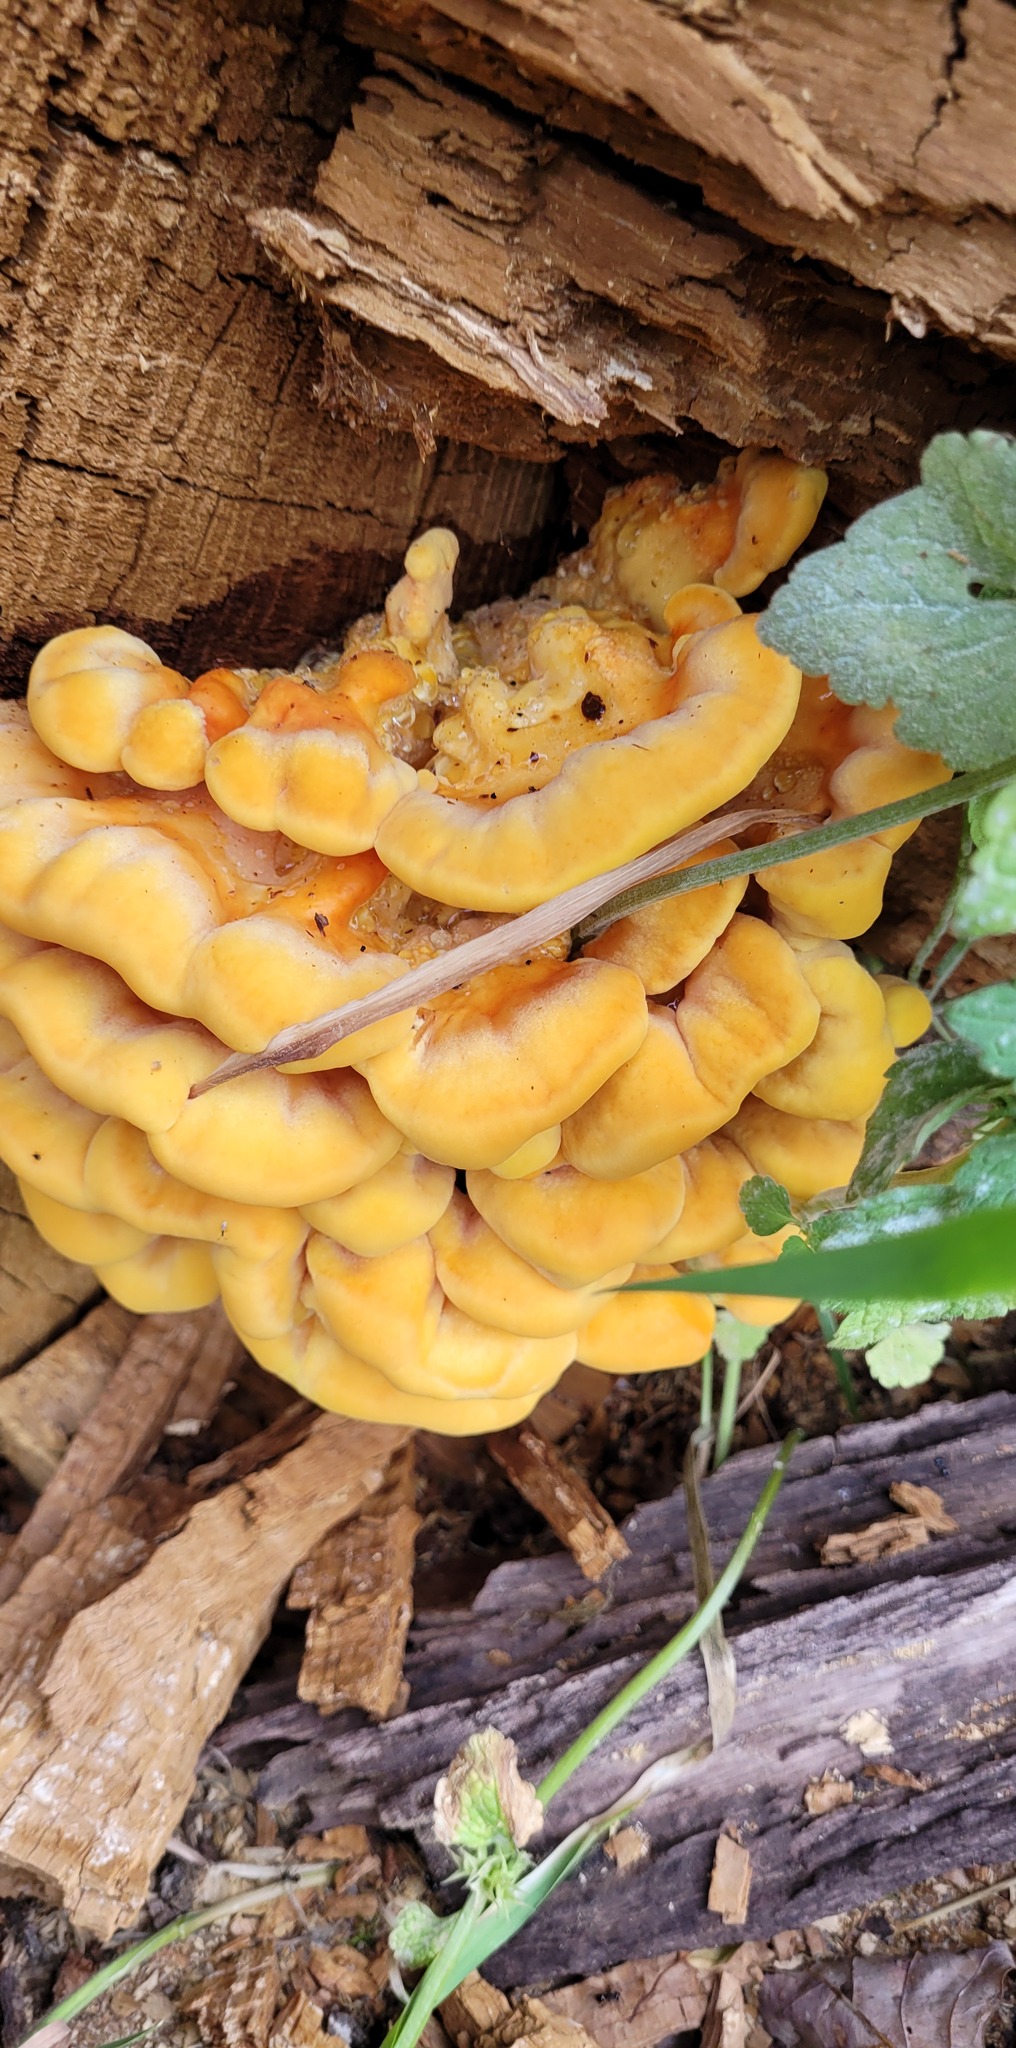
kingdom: Fungi
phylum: Basidiomycota
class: Agaricomycetes
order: Polyporales
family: Laetiporaceae
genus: Laetiporus
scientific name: Laetiporus sulphureus
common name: Chicken of the woods
